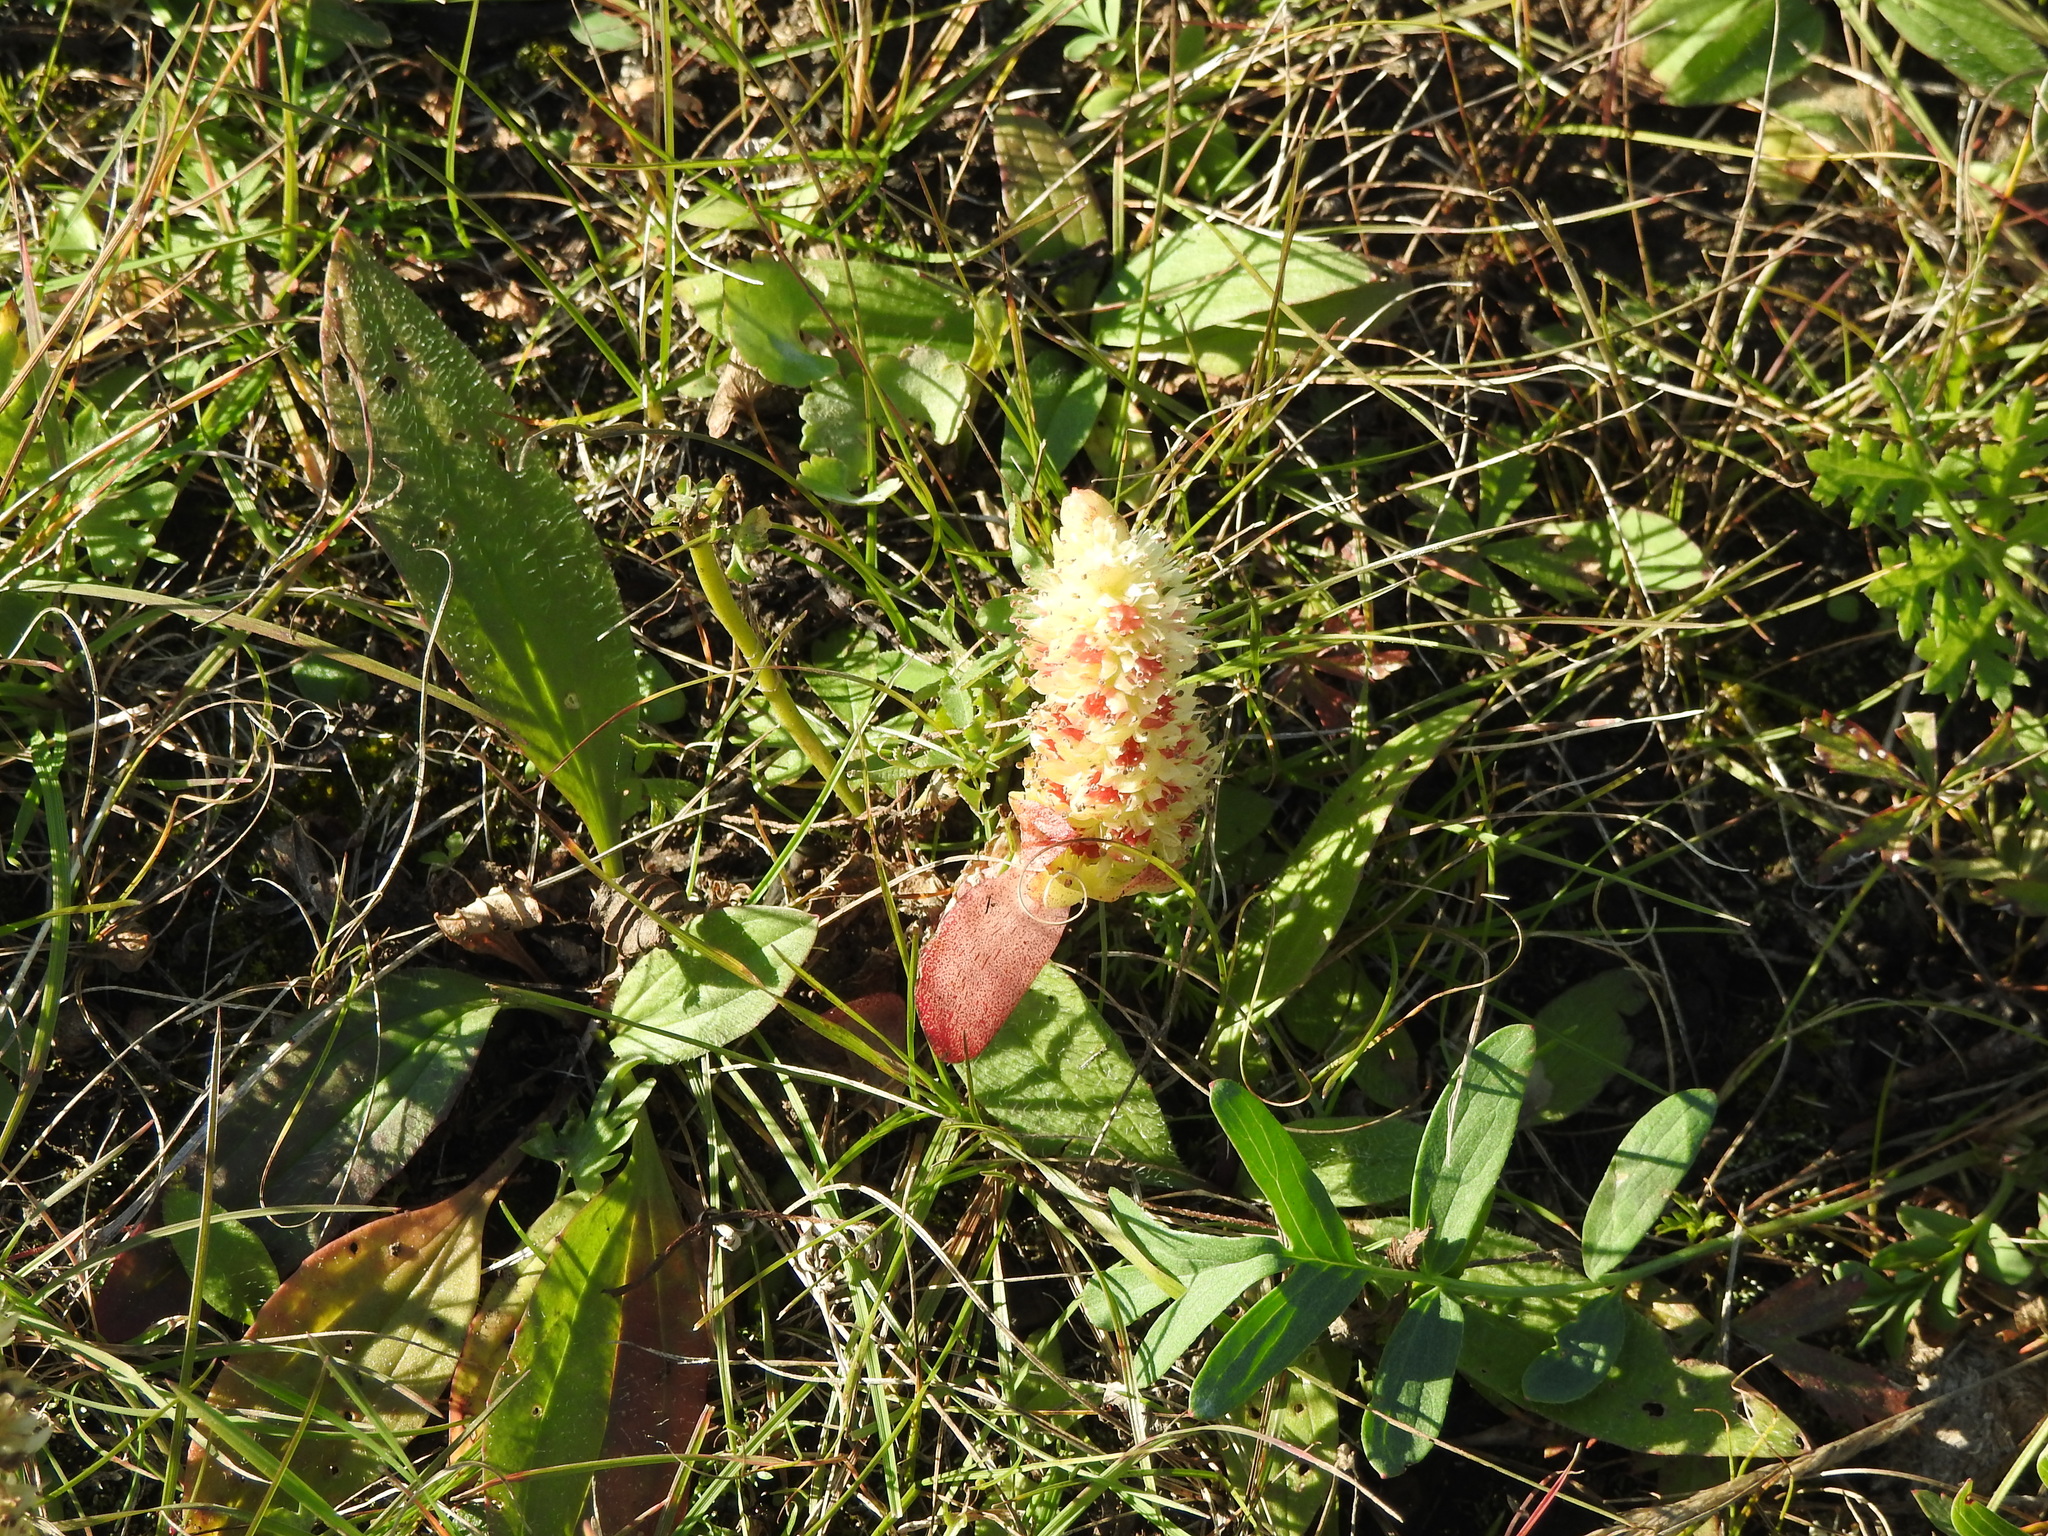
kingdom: Plantae
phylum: Tracheophyta
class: Magnoliopsida
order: Saxifragales
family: Crassulaceae
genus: Orostachys
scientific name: Orostachys malacophylla
